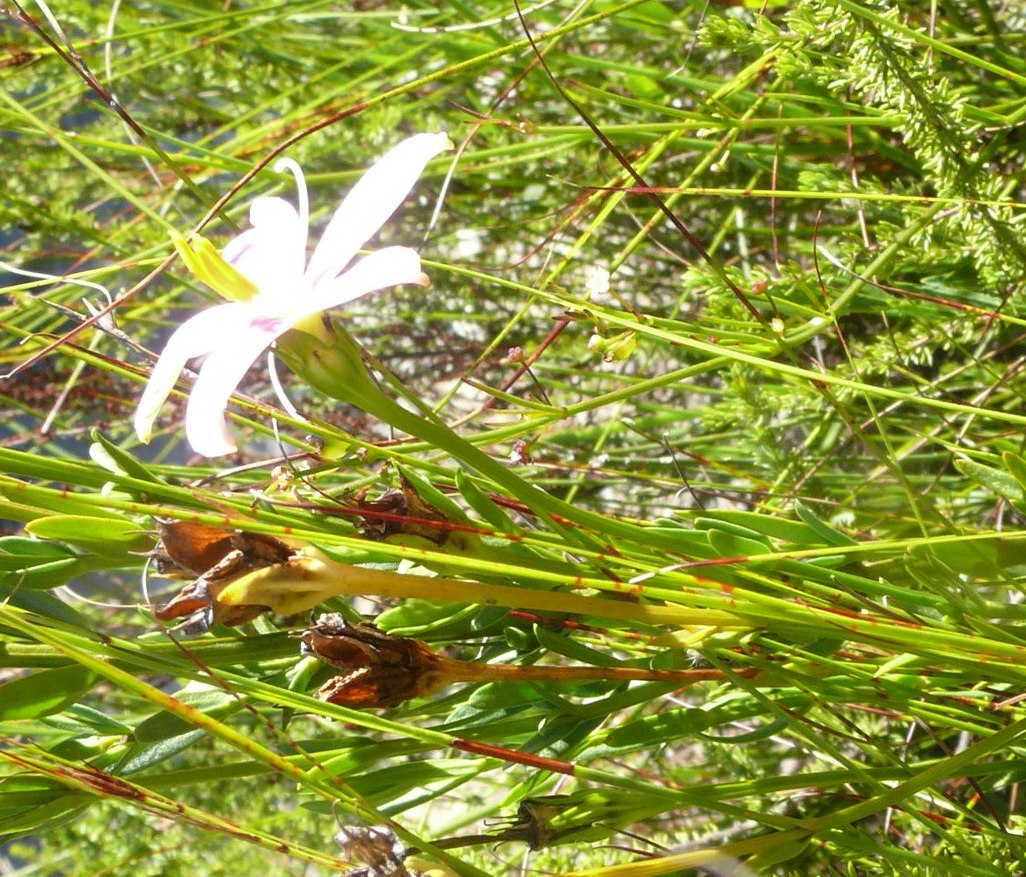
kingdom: Plantae
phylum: Tracheophyta
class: Magnoliopsida
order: Gentianales
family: Gentianaceae
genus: Chironia
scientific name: Chironia tetragona
